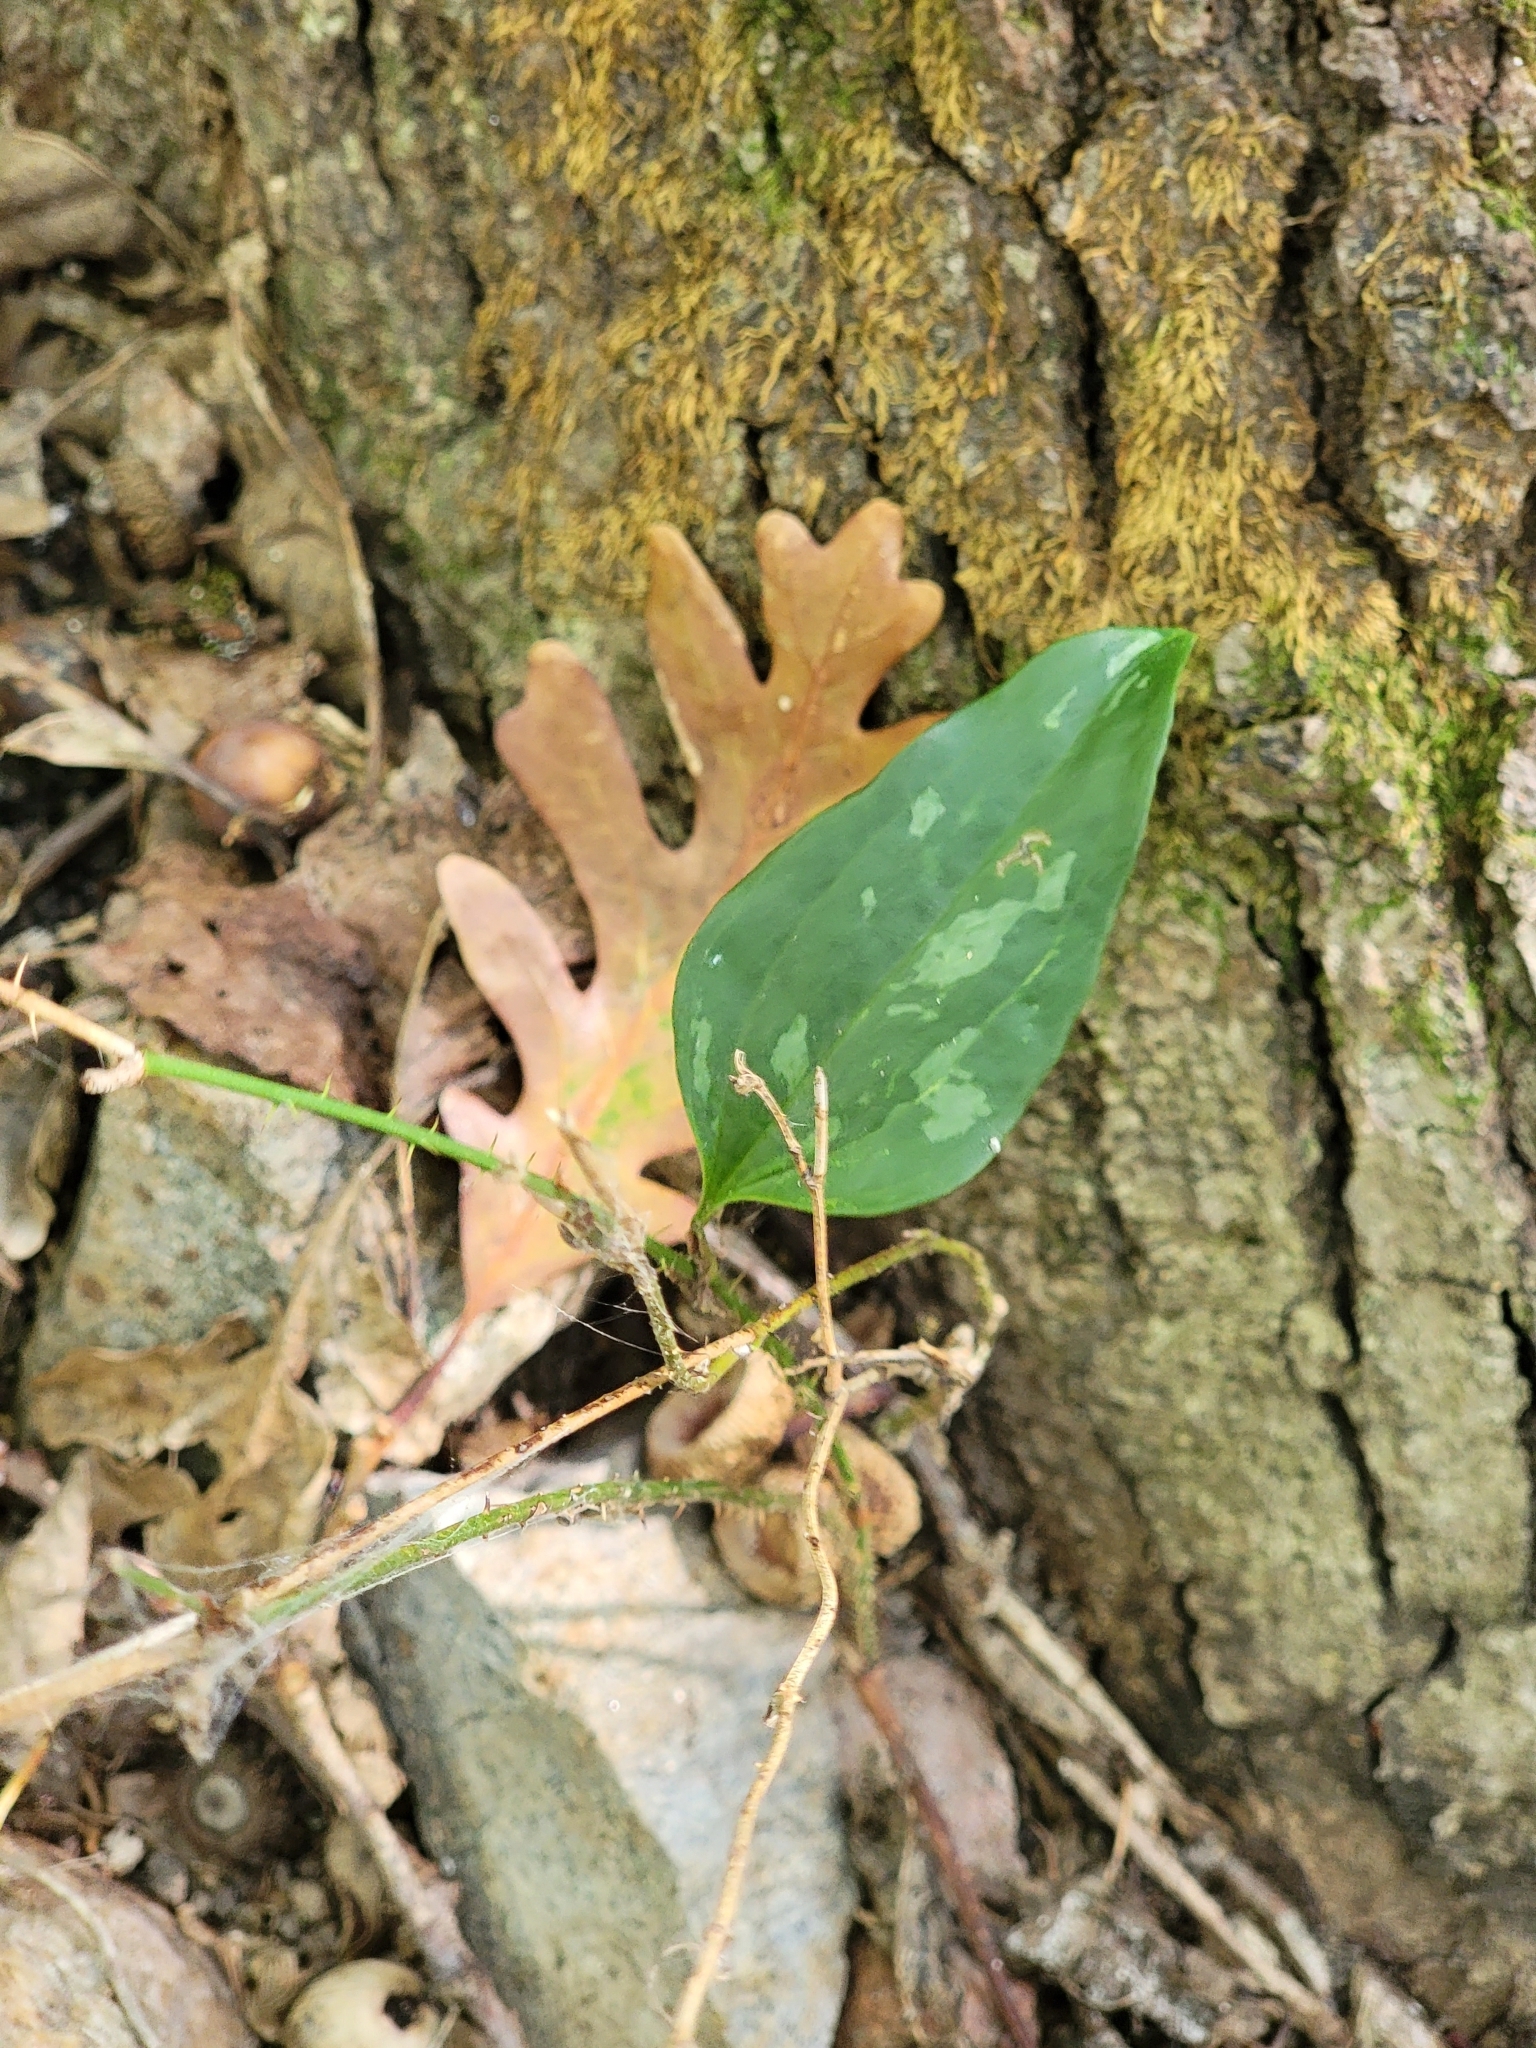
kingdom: Plantae
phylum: Tracheophyta
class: Liliopsida
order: Liliales
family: Smilacaceae
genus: Smilax
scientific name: Smilax glauca
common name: Cat greenbrier
